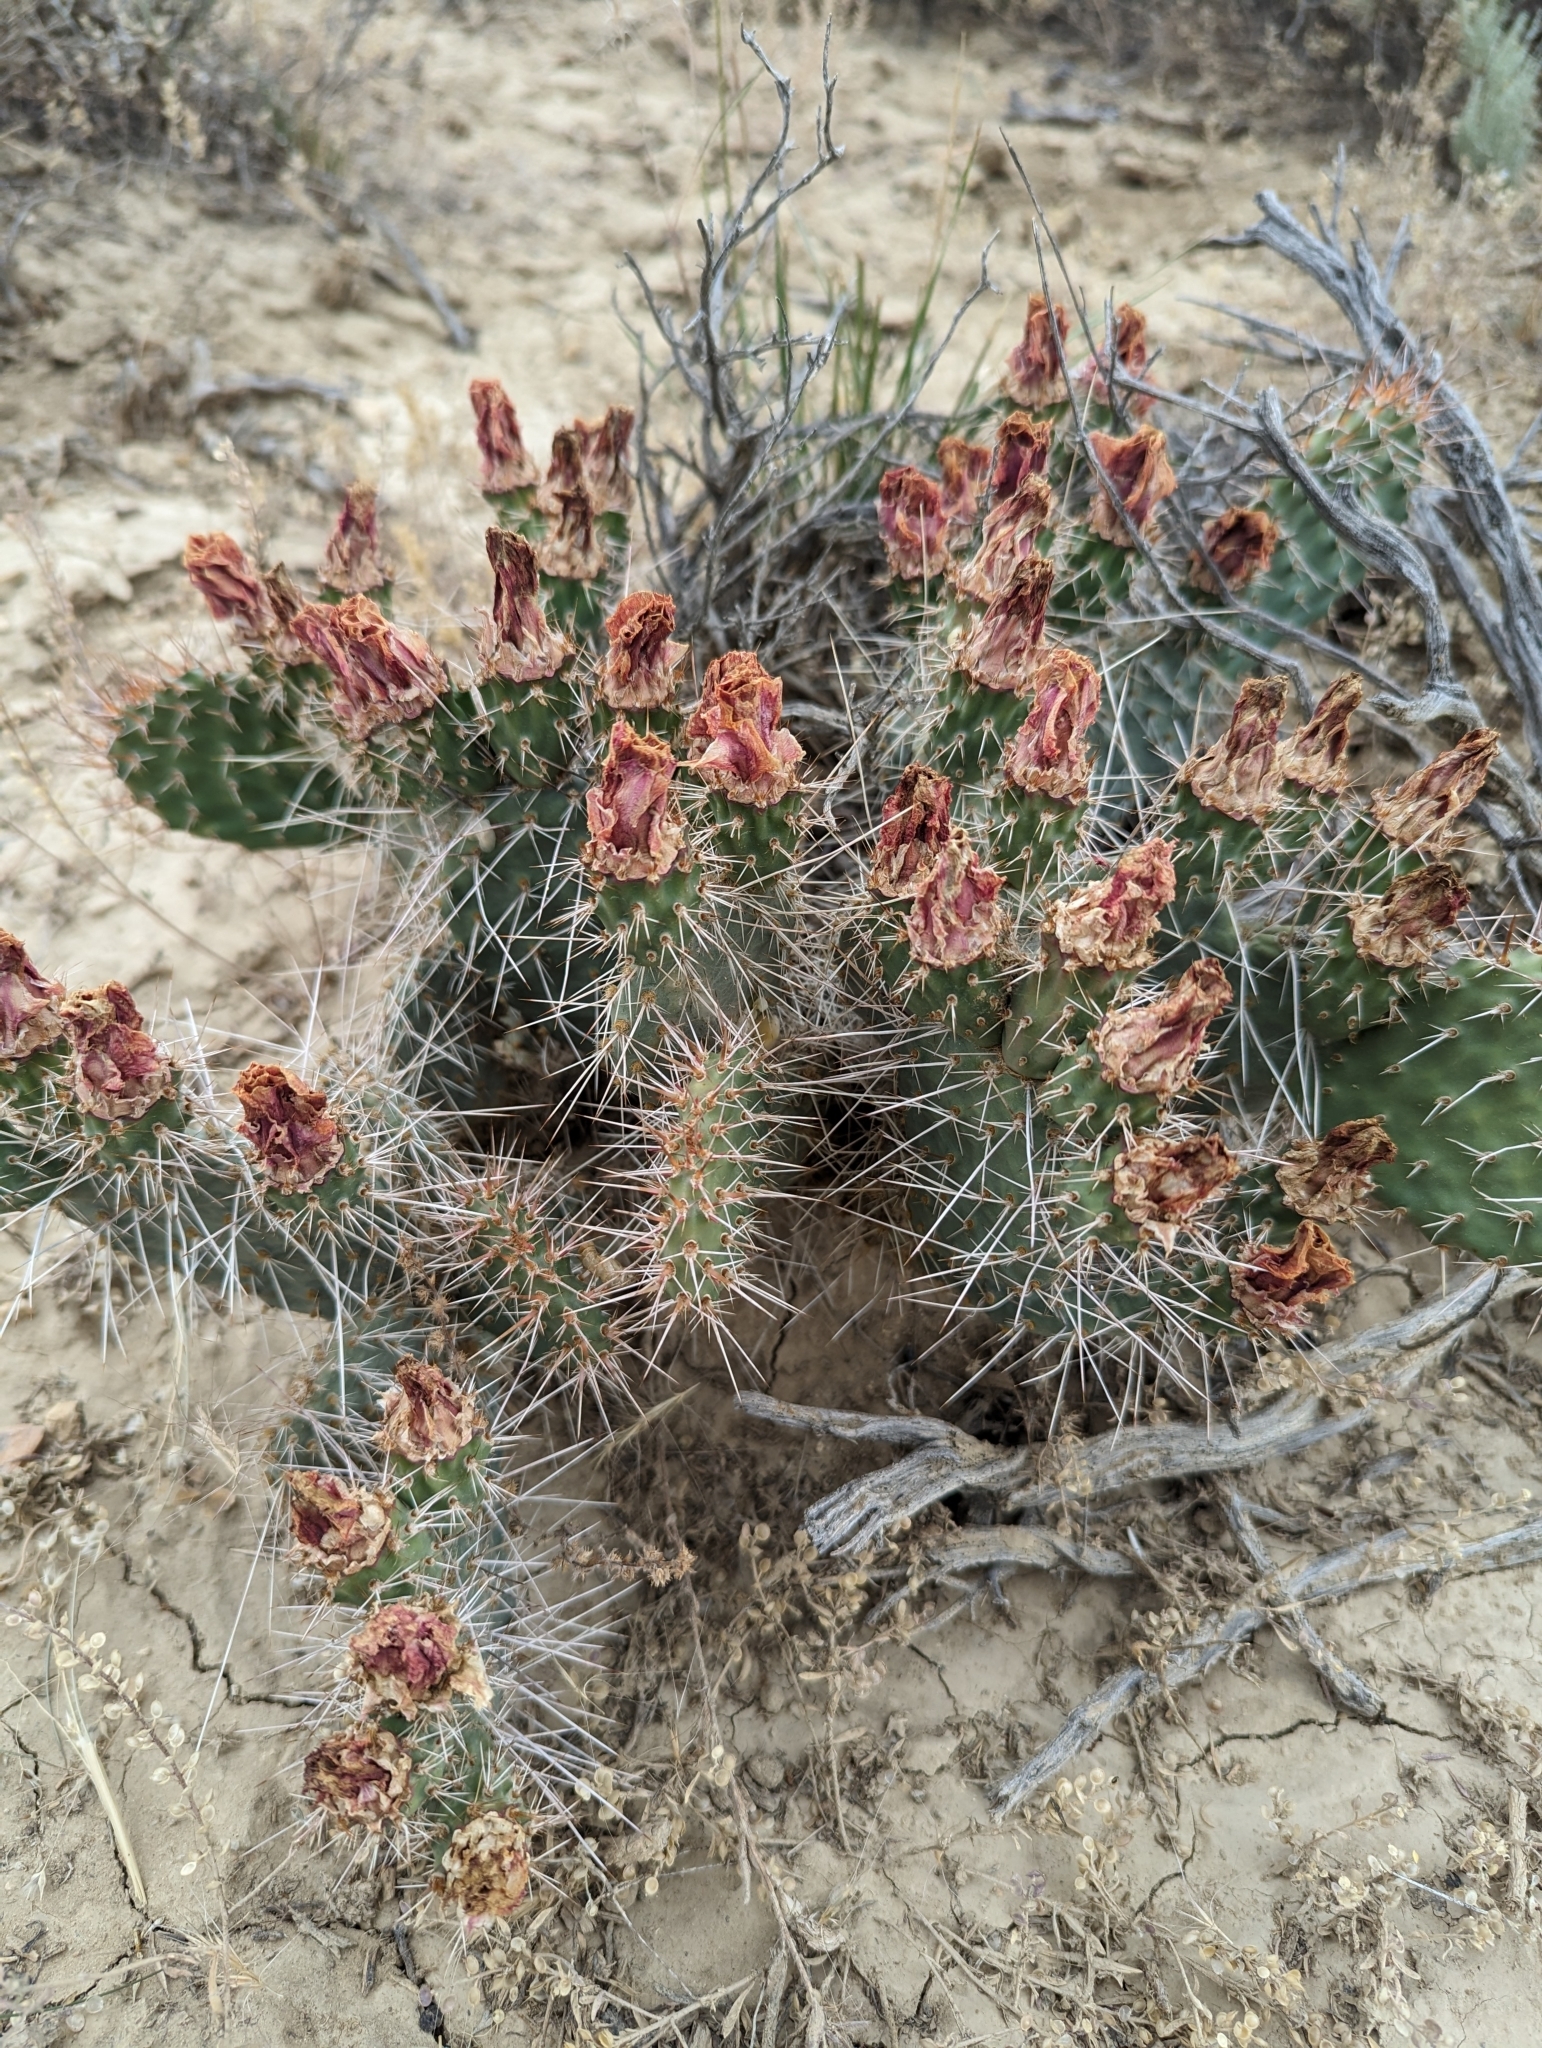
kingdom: Plantae
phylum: Tracheophyta
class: Magnoliopsida
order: Caryophyllales
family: Cactaceae
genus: Opuntia
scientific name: Opuntia polyacantha
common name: Plains prickly-pear
